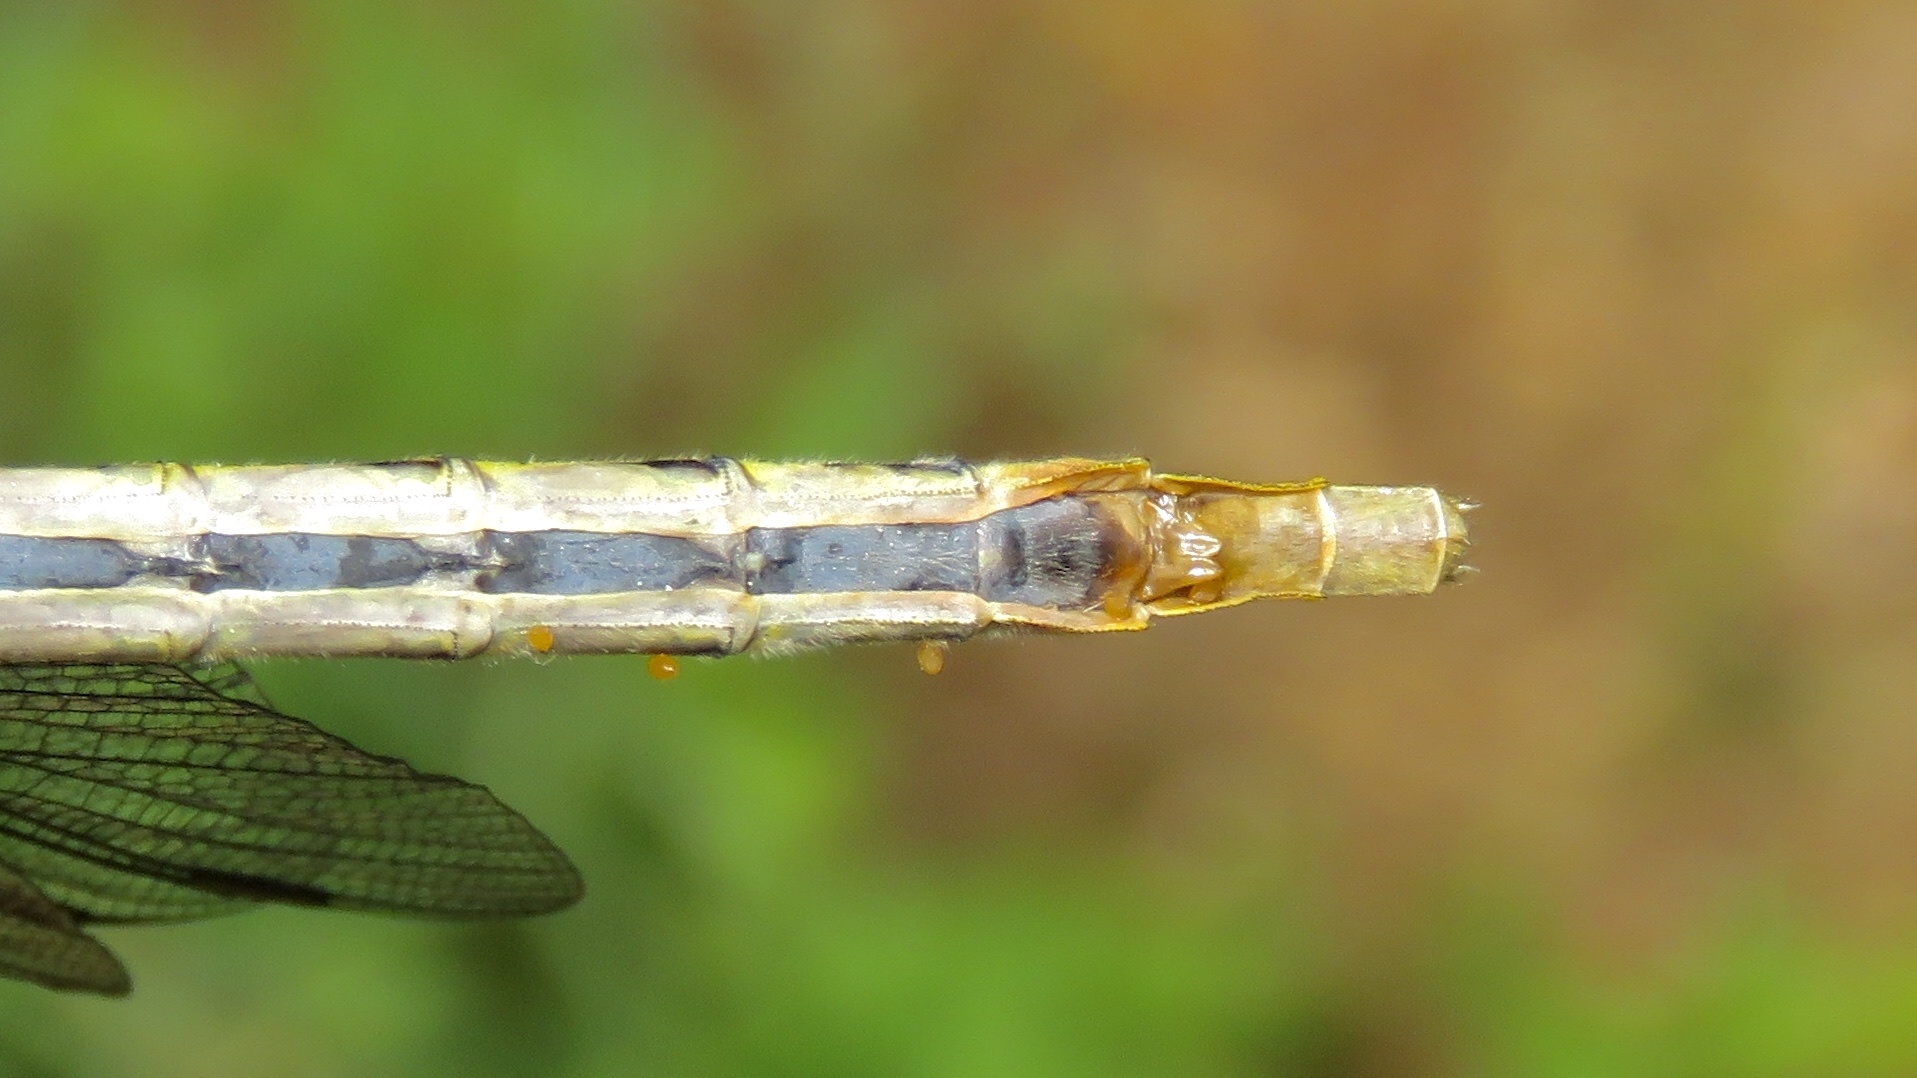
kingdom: Animalia
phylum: Arthropoda
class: Insecta
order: Odonata
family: Gomphidae
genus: Arigomphus
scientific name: Arigomphus furcifer
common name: Lilypad clubtail
